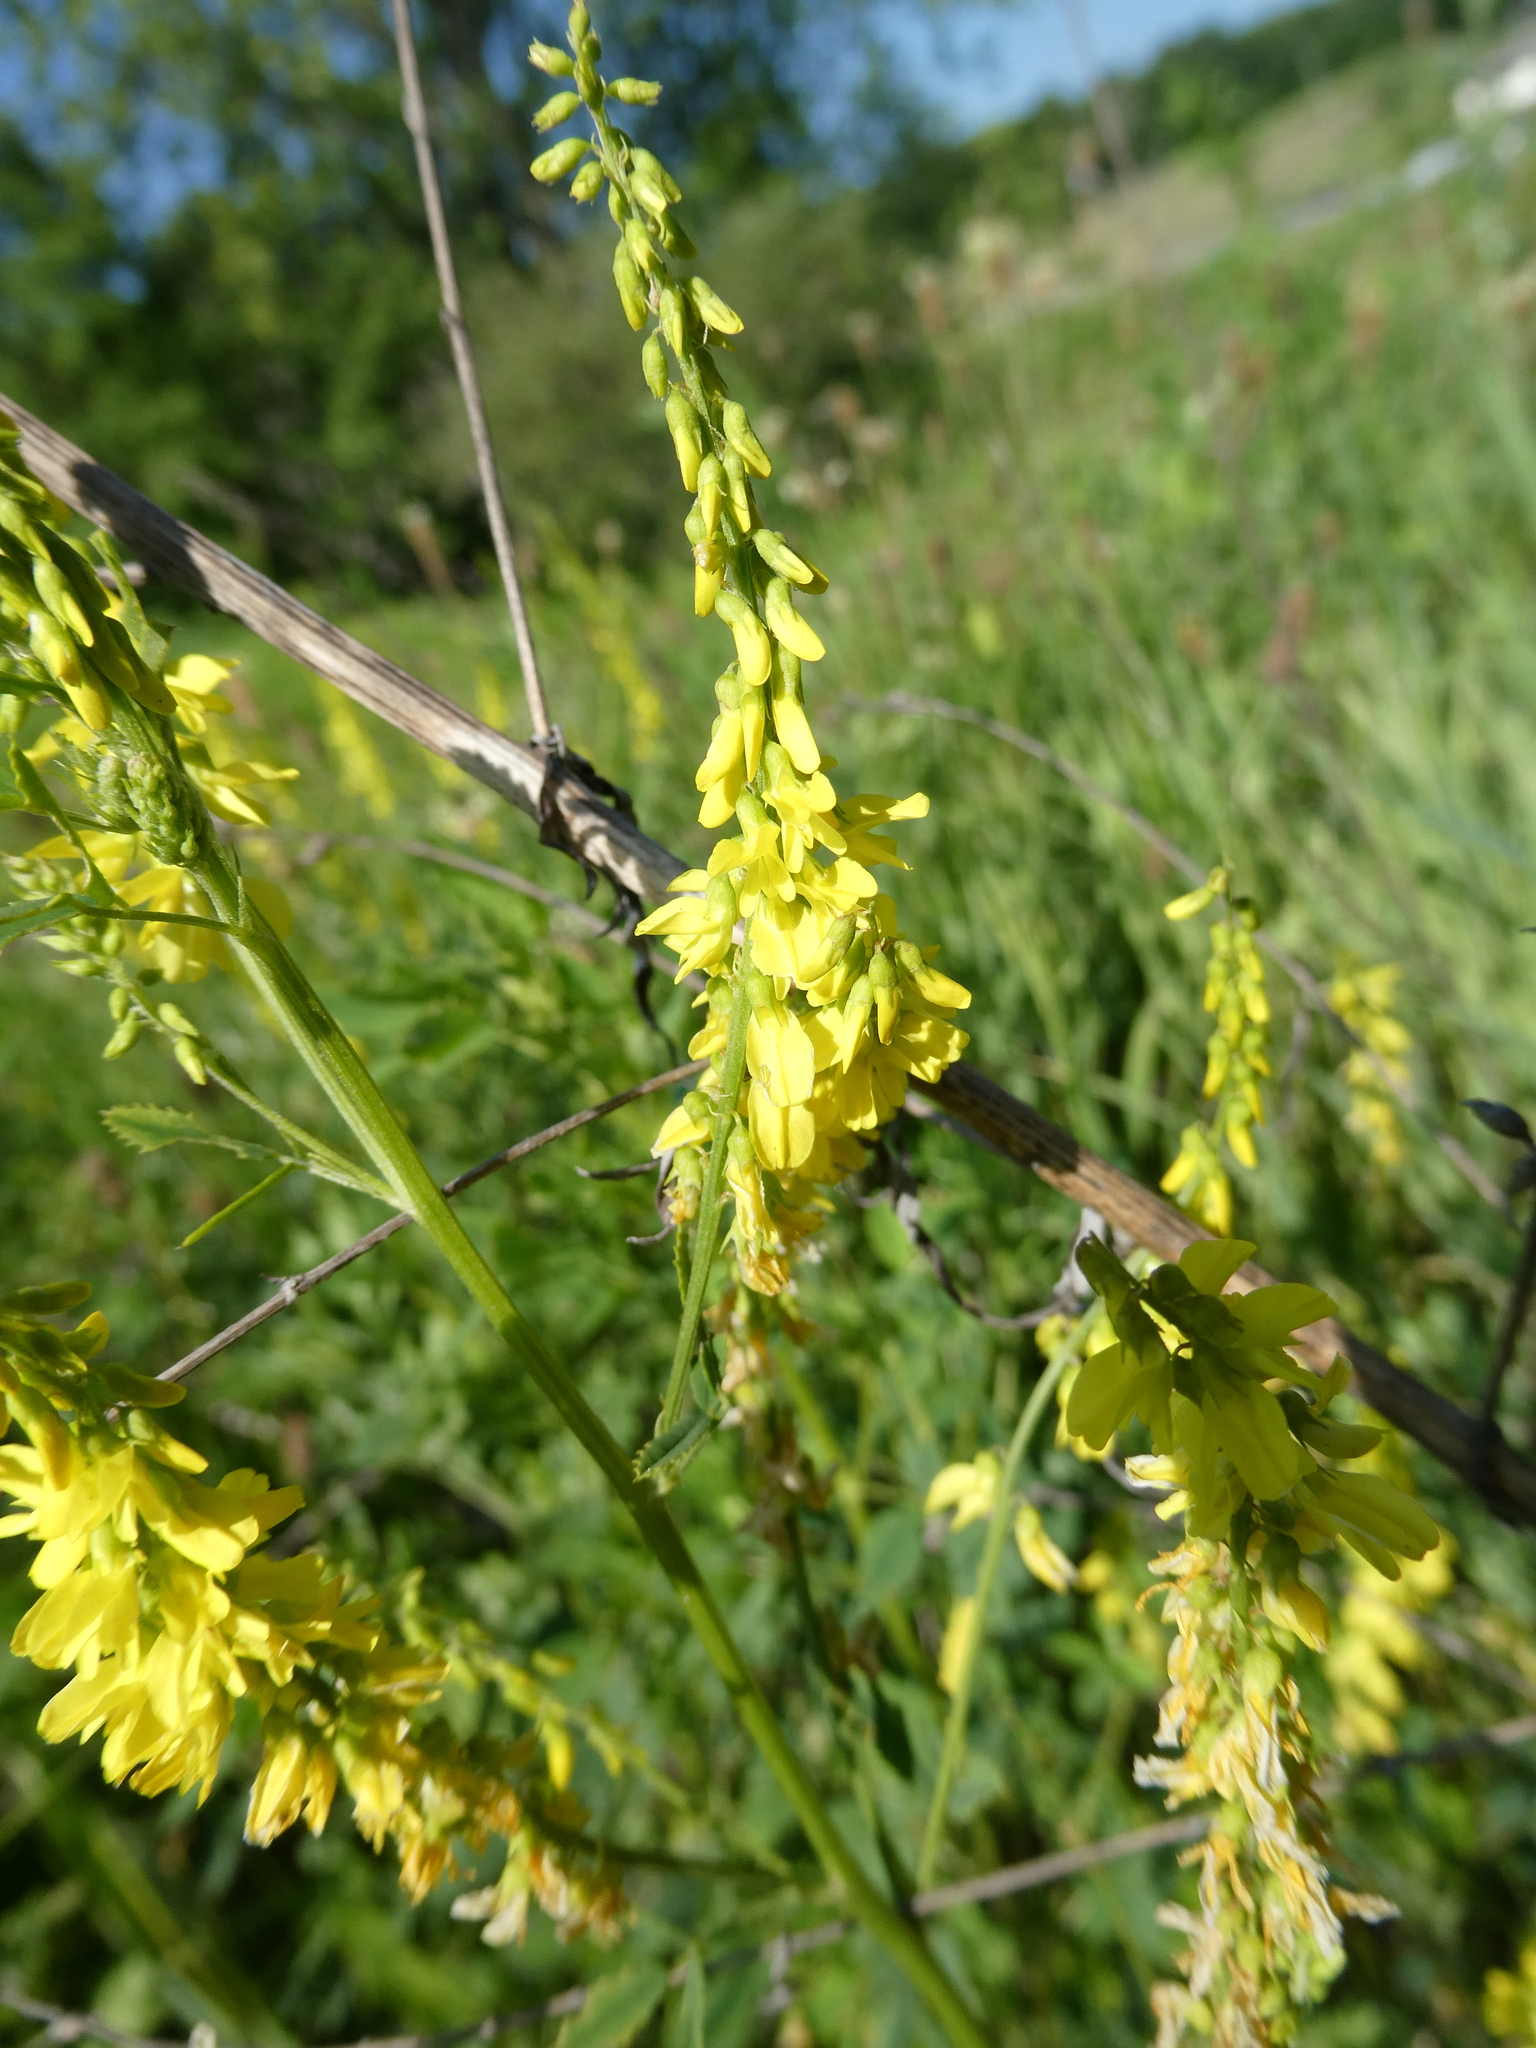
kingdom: Plantae
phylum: Tracheophyta
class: Magnoliopsida
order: Fabales
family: Fabaceae
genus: Melilotus
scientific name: Melilotus officinalis
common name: Sweetclover
